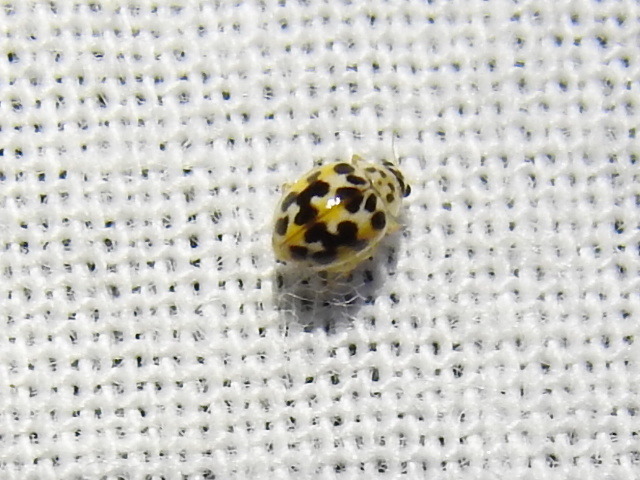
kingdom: Animalia
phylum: Arthropoda
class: Insecta
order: Coleoptera
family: Coccinellidae
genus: Psyllobora
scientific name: Psyllobora vigintimaculata
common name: Ladybird beetle
